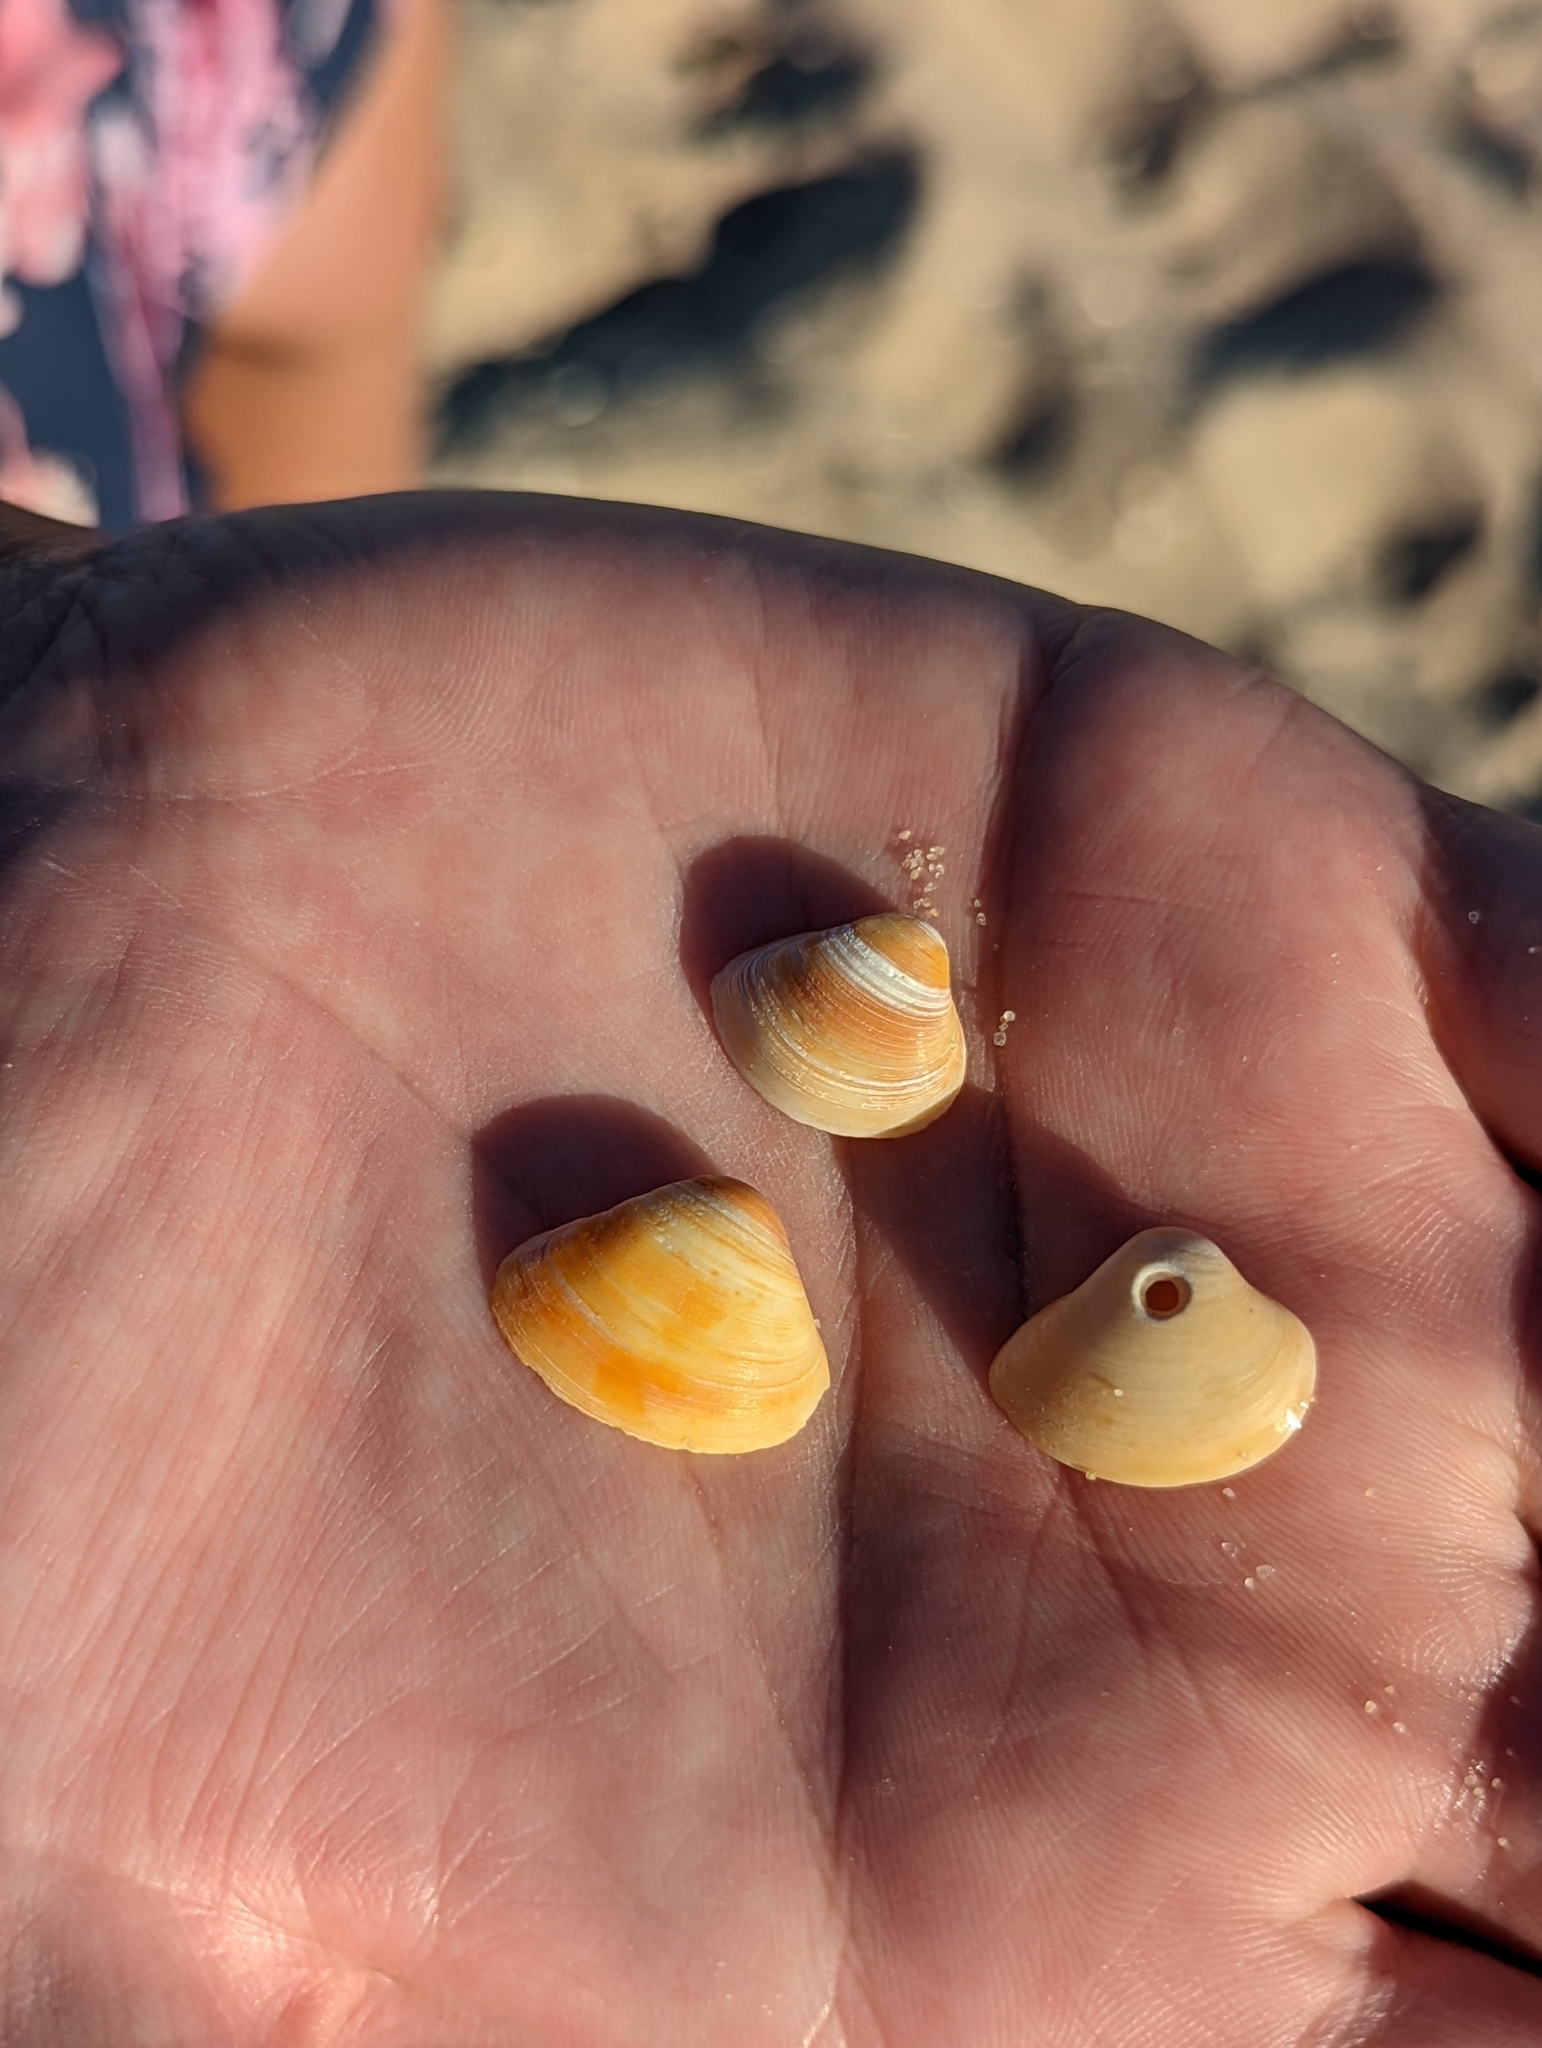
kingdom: Animalia
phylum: Mollusca
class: Bivalvia
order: Venerida
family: Mactridae
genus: Spisula
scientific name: Spisula trigonella
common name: Trigonal mactra
